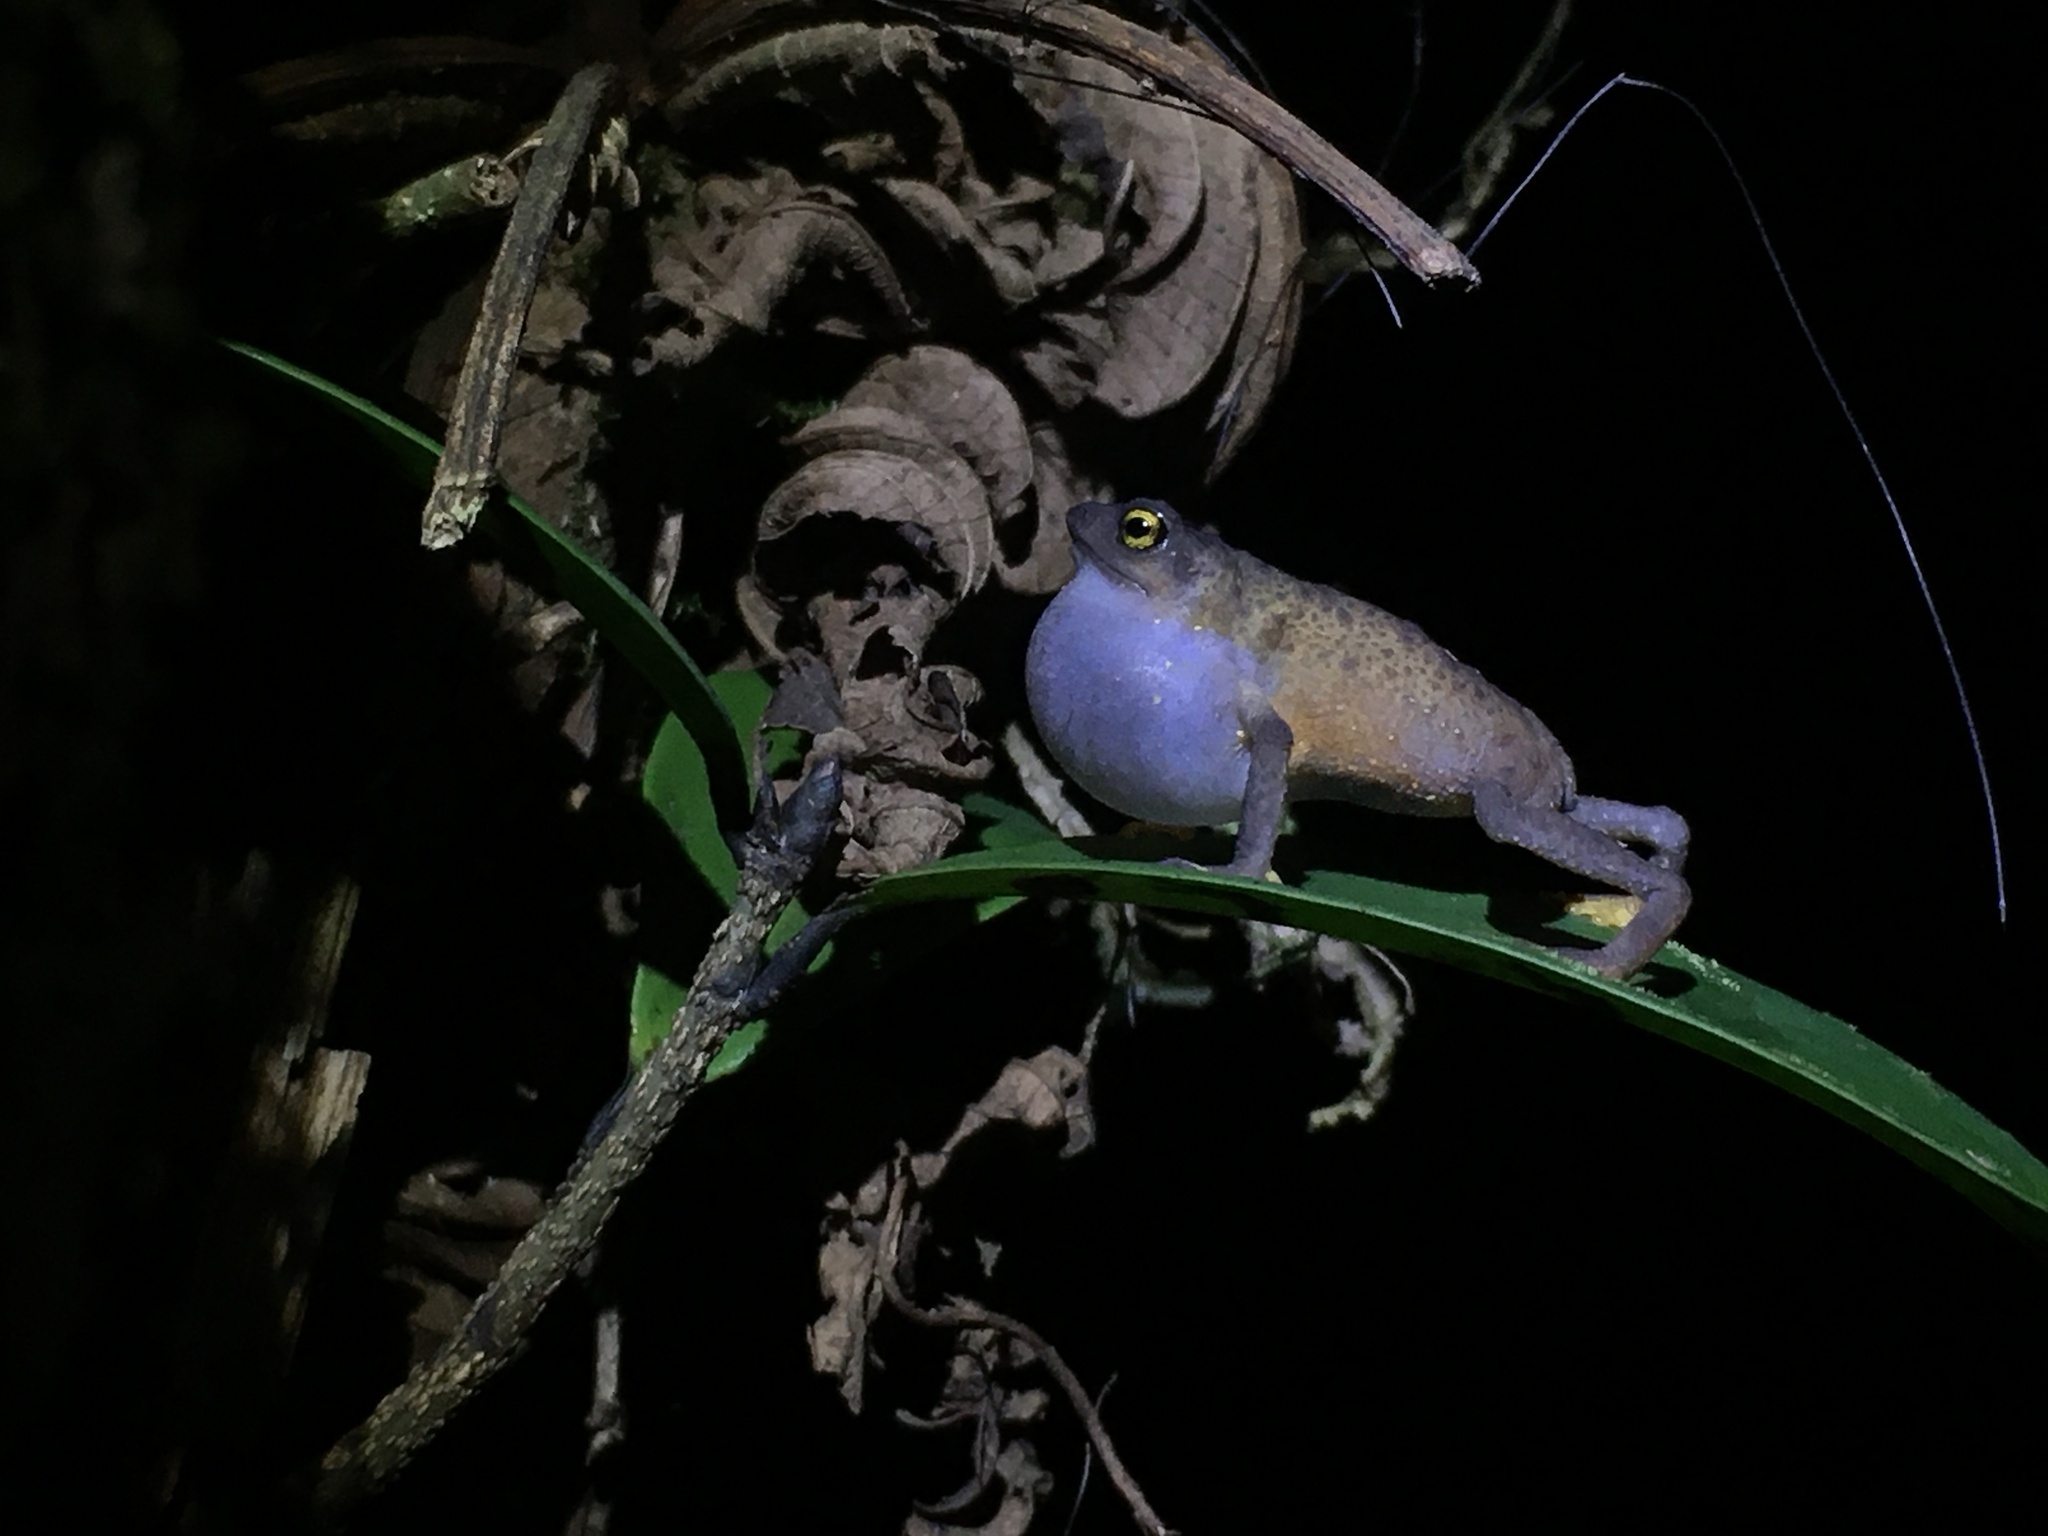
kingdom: Animalia
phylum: Chordata
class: Amphibia
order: Anura
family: Bufonidae
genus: Frostius
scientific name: Frostius pernambucensis
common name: Frost’s toad
